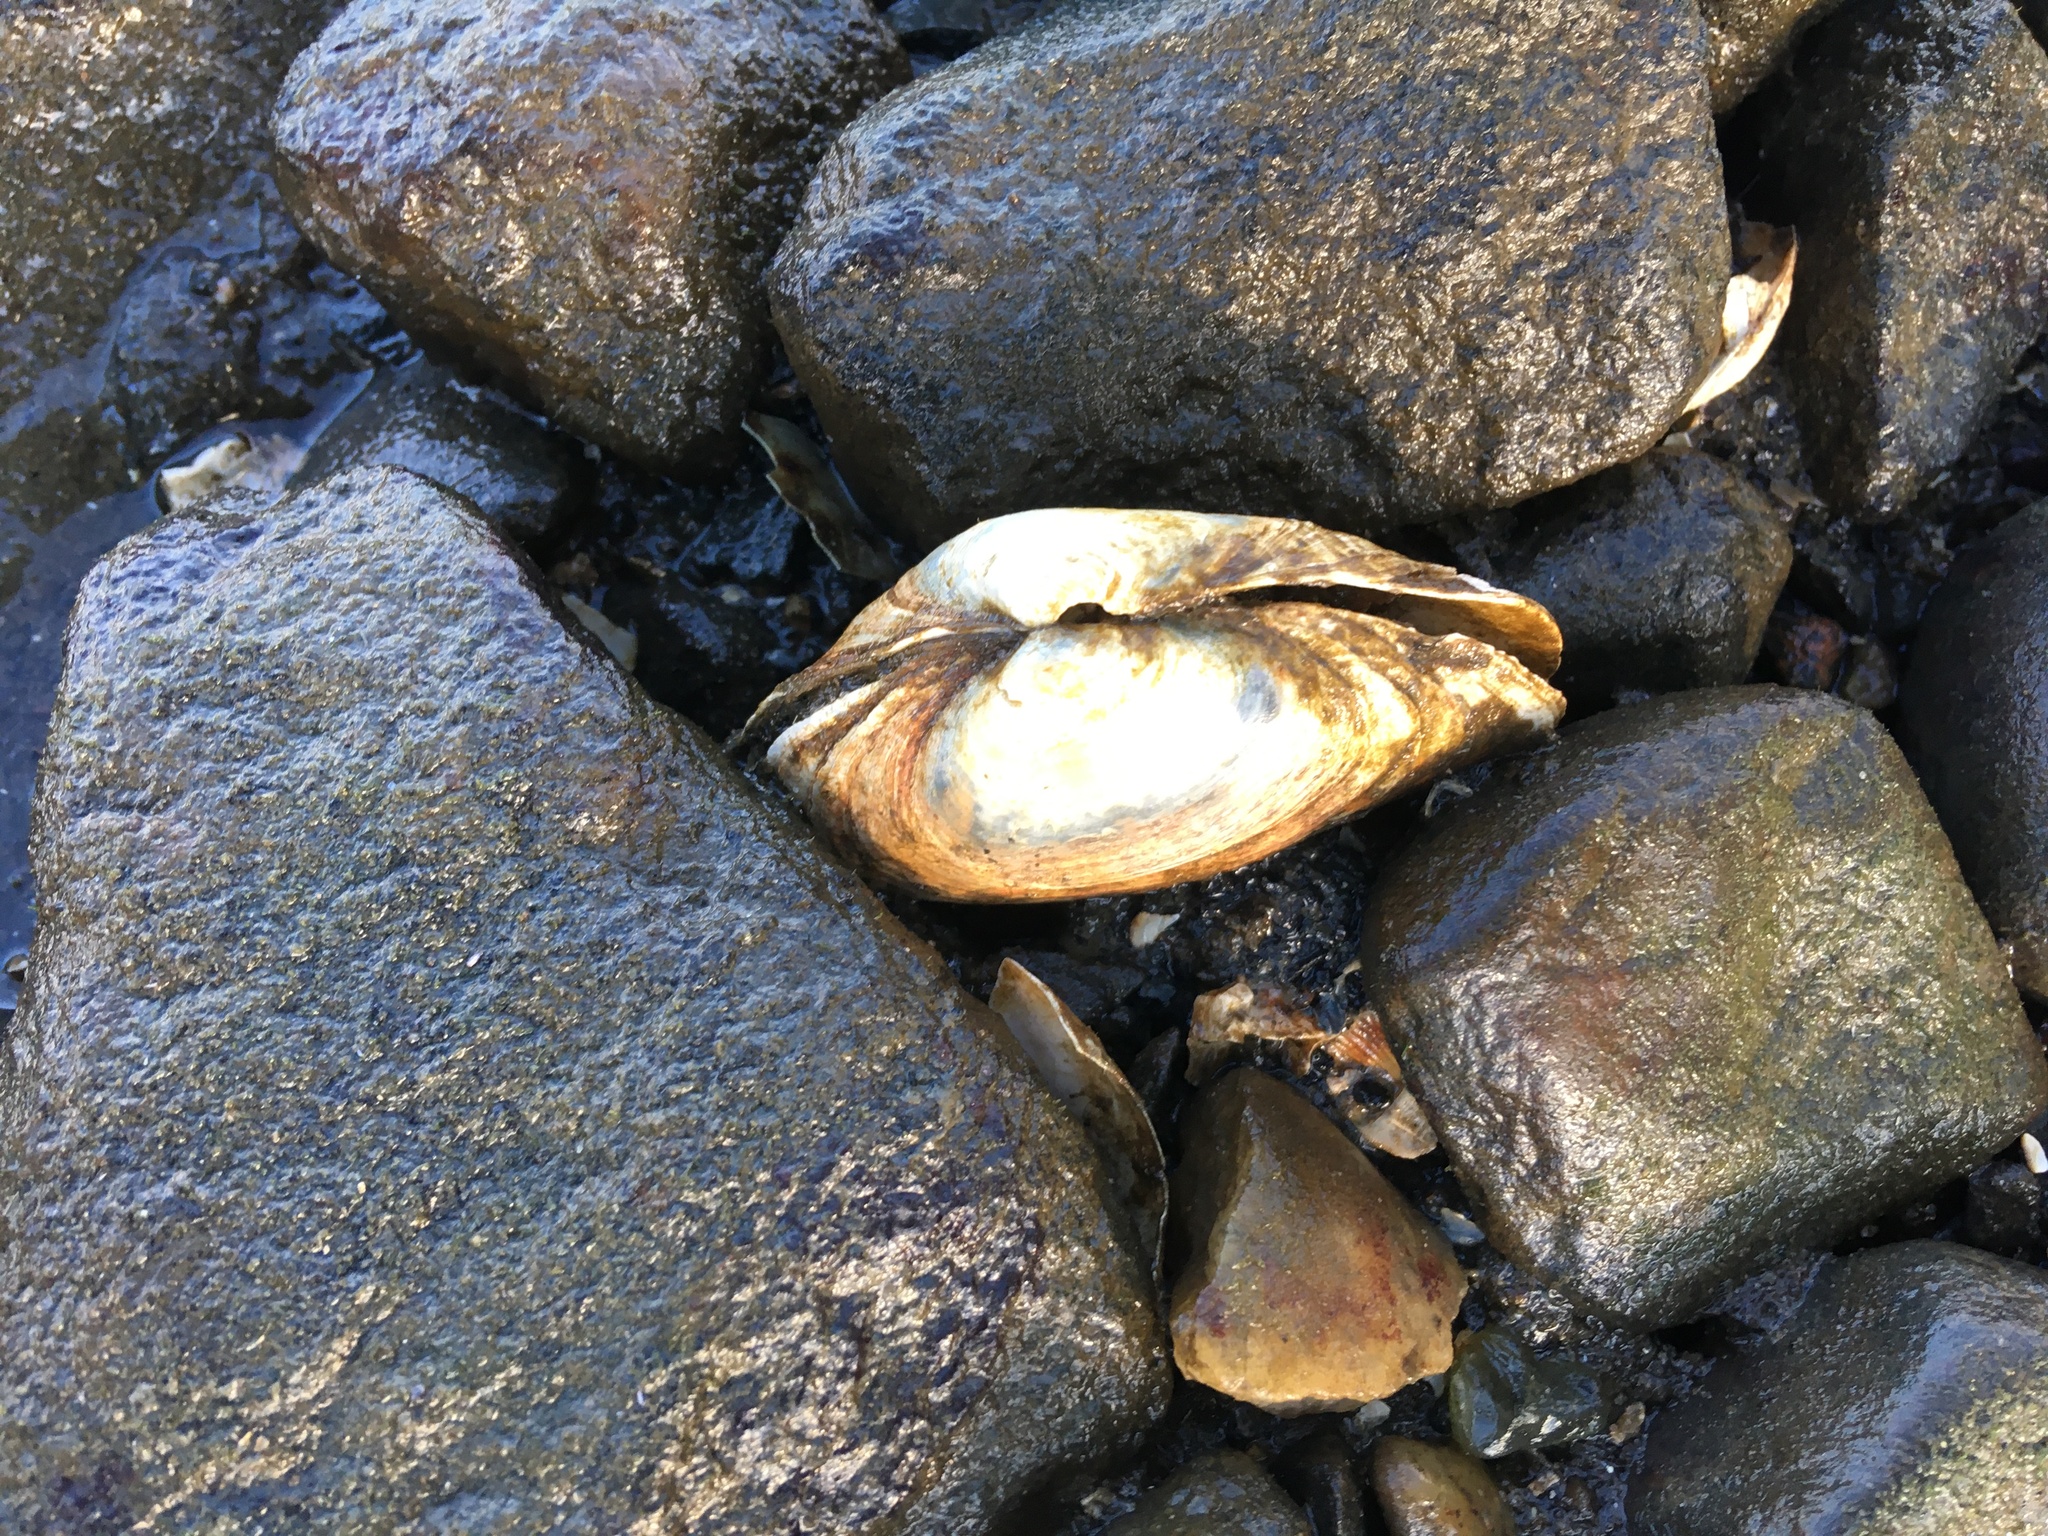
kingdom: Animalia
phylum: Mollusca
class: Bivalvia
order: Myida
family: Myidae
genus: Mya
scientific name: Mya arenaria
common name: Soft-shelled clam
